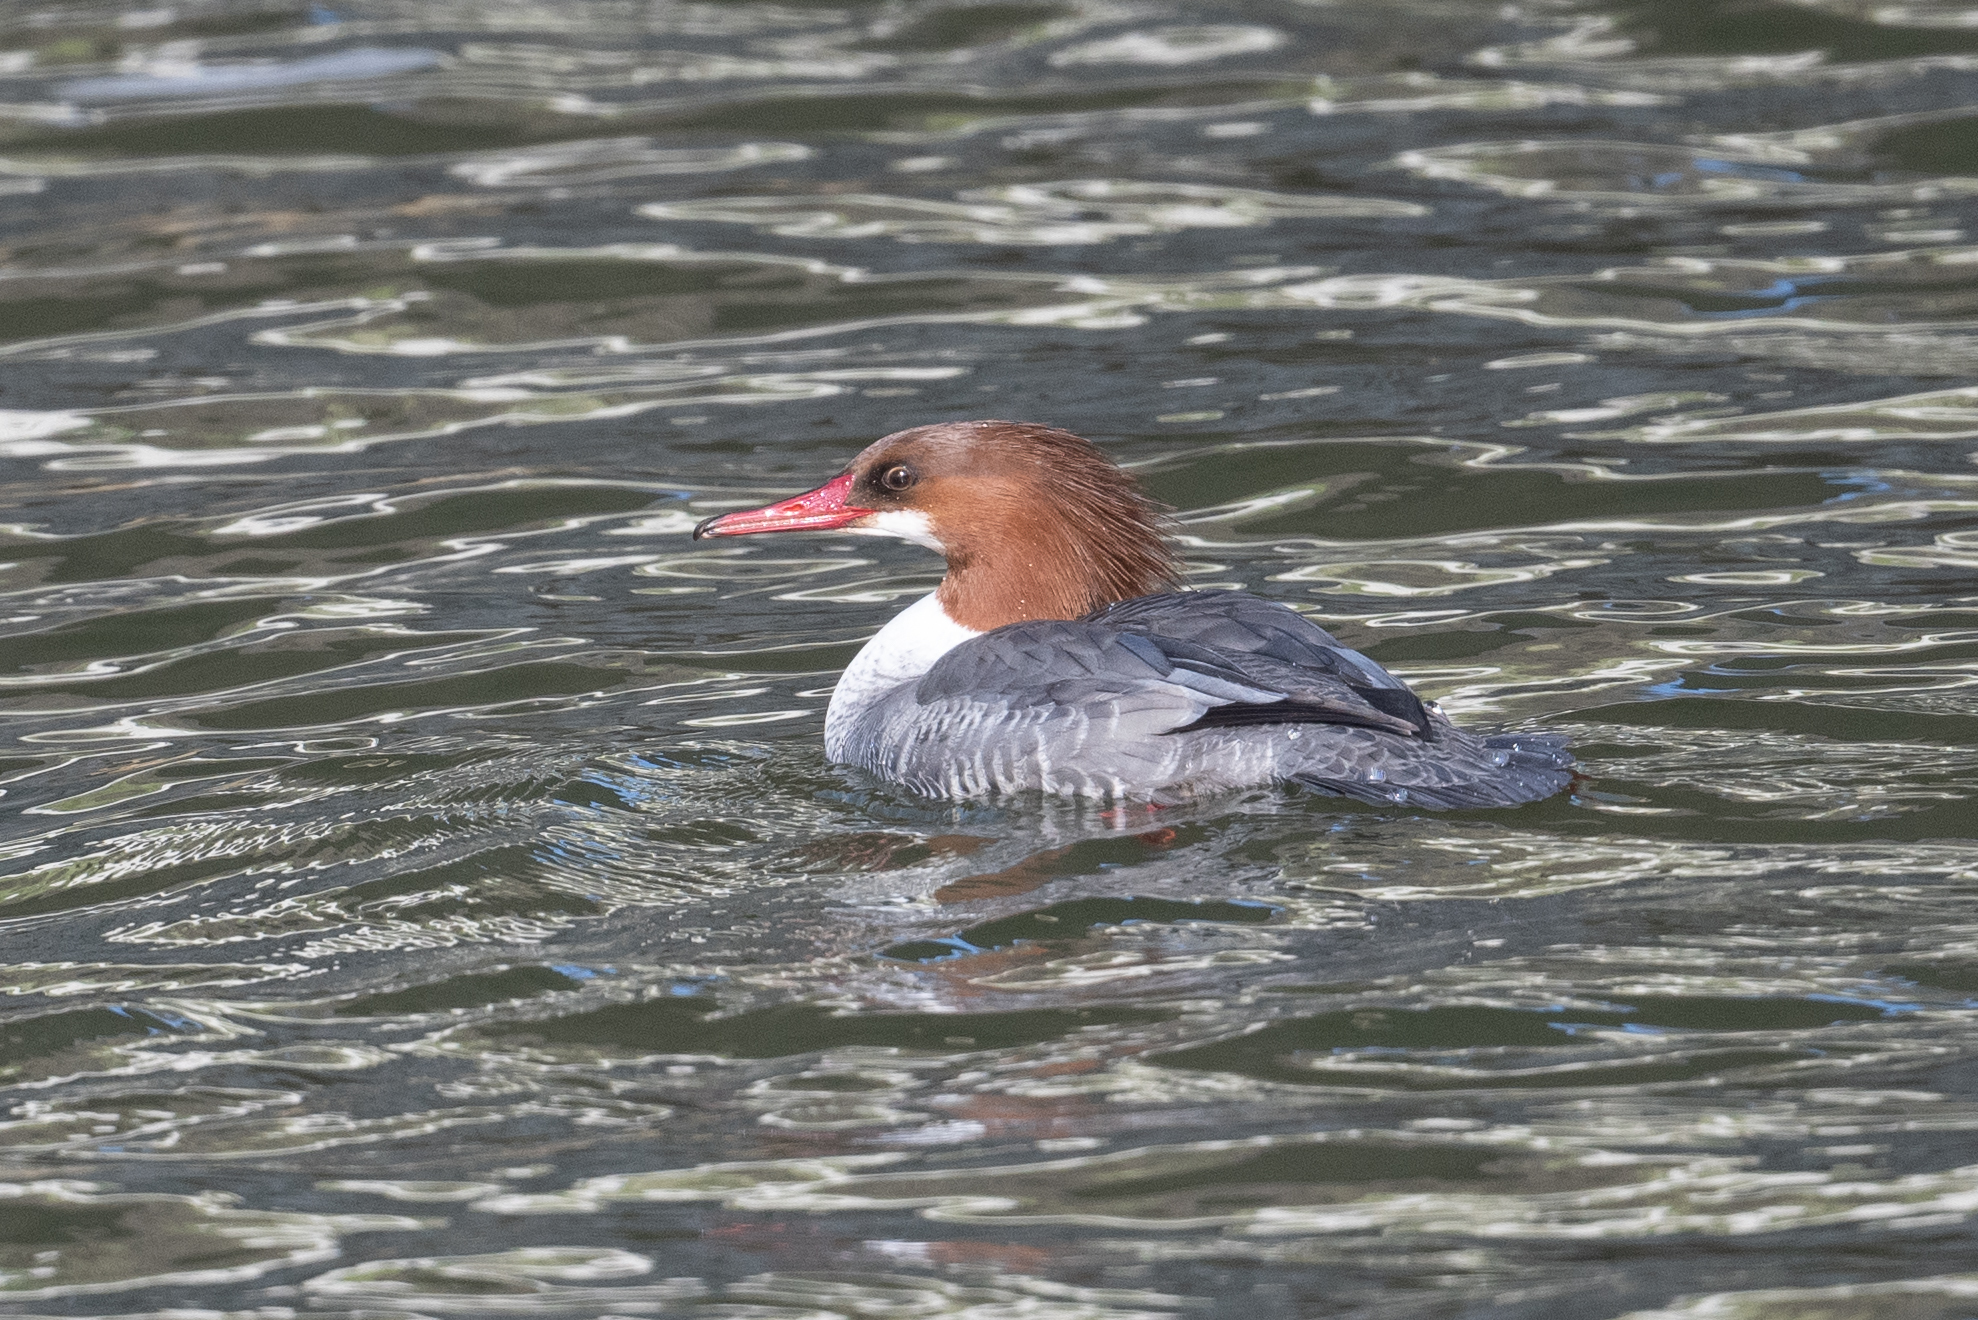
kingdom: Animalia
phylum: Chordata
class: Aves
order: Anseriformes
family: Anatidae
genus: Mergus
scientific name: Mergus merganser
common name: Common merganser
